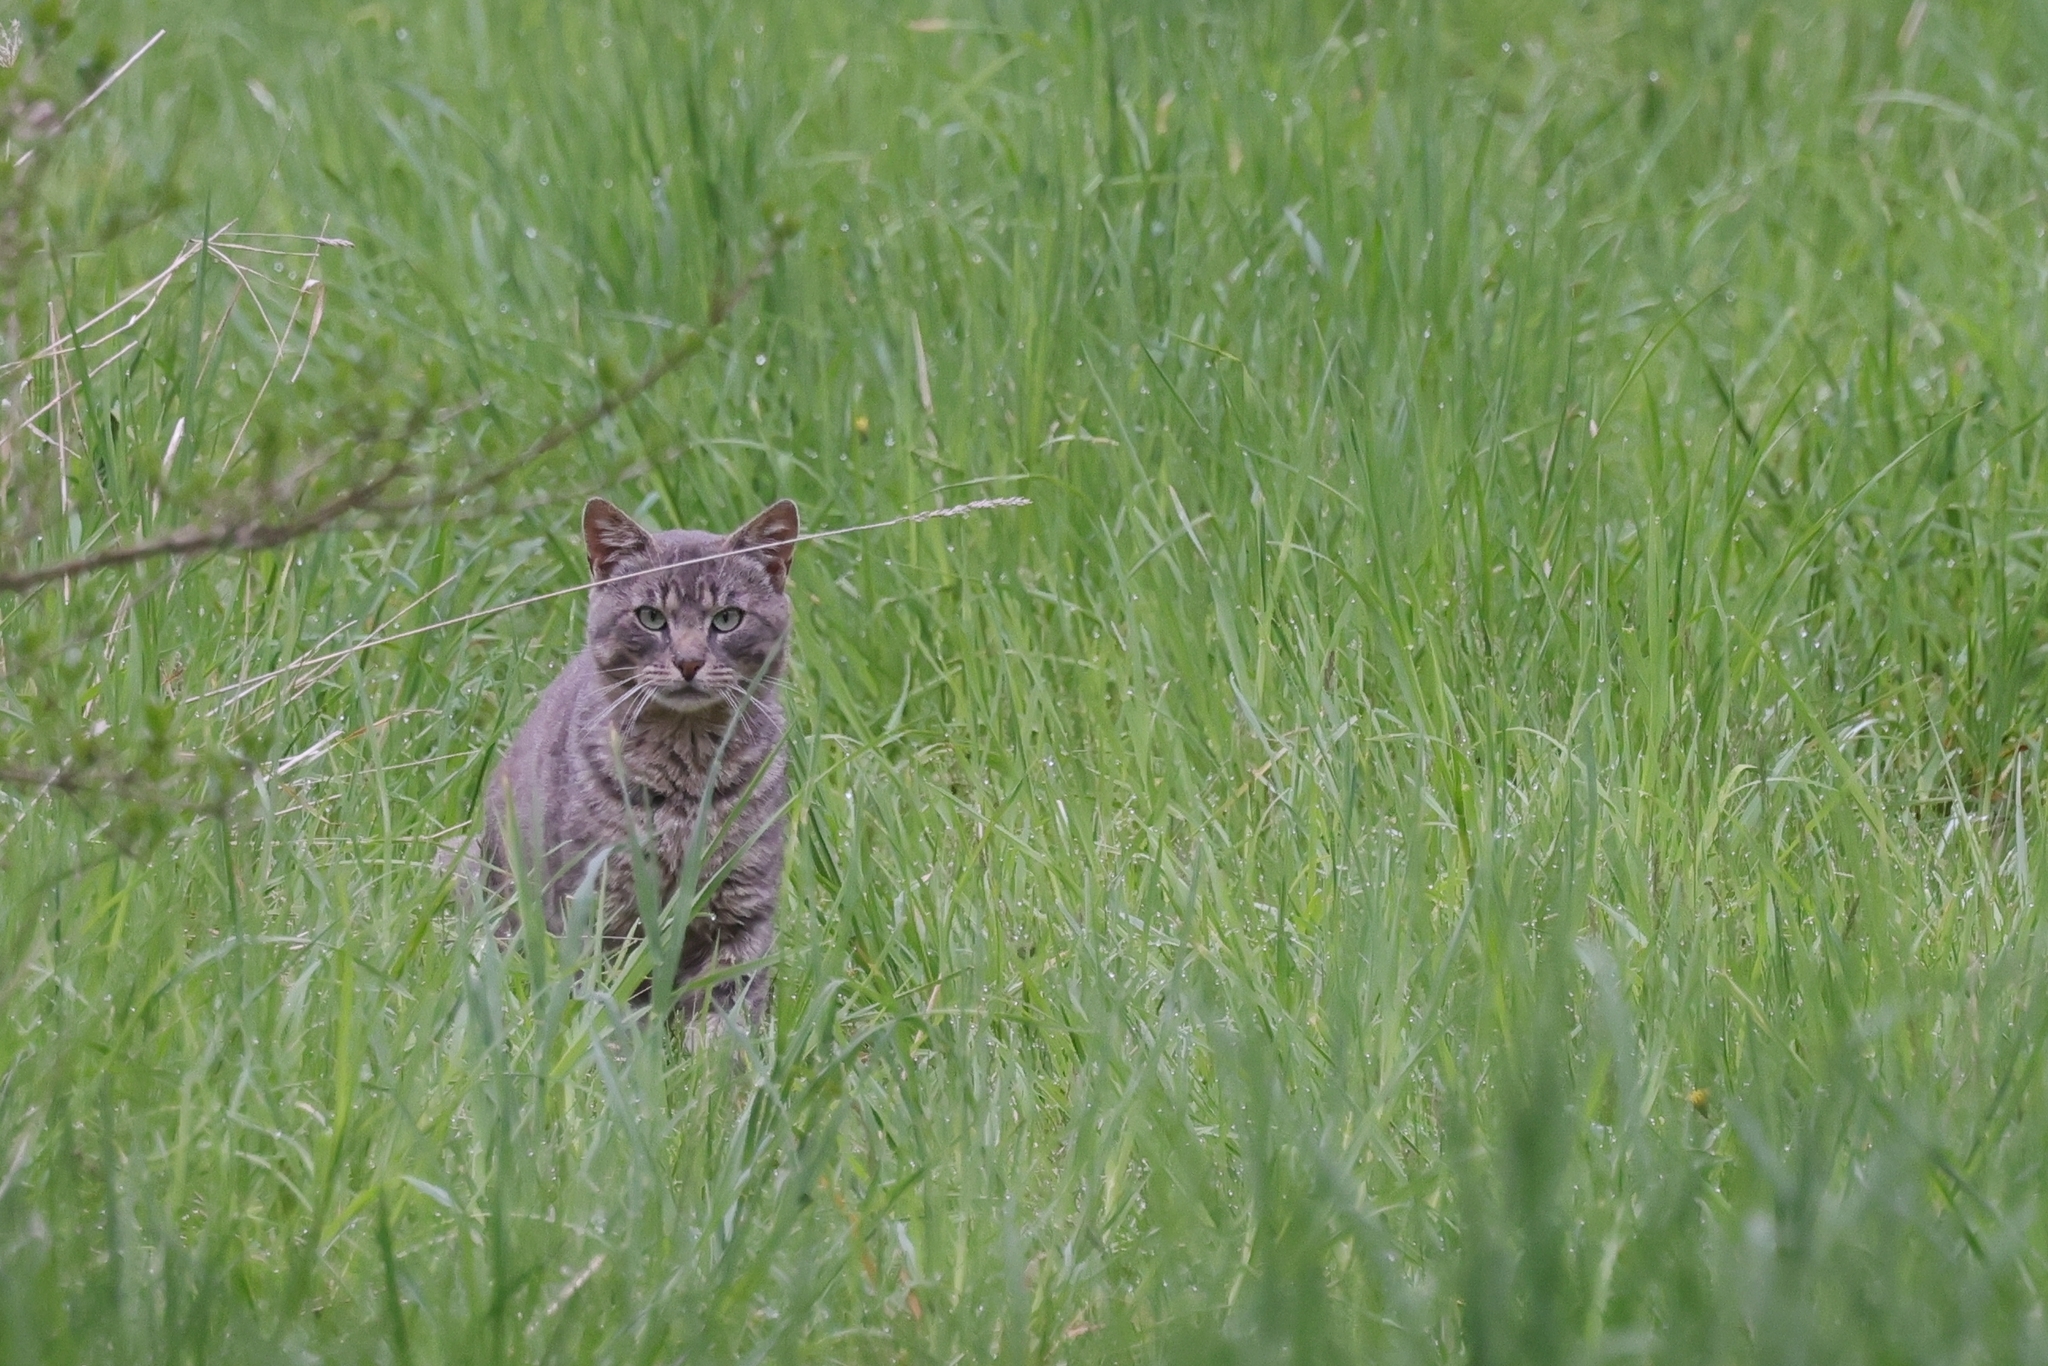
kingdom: Animalia
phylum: Chordata
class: Mammalia
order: Carnivora
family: Felidae
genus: Felis
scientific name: Felis catus
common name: Domestic cat
